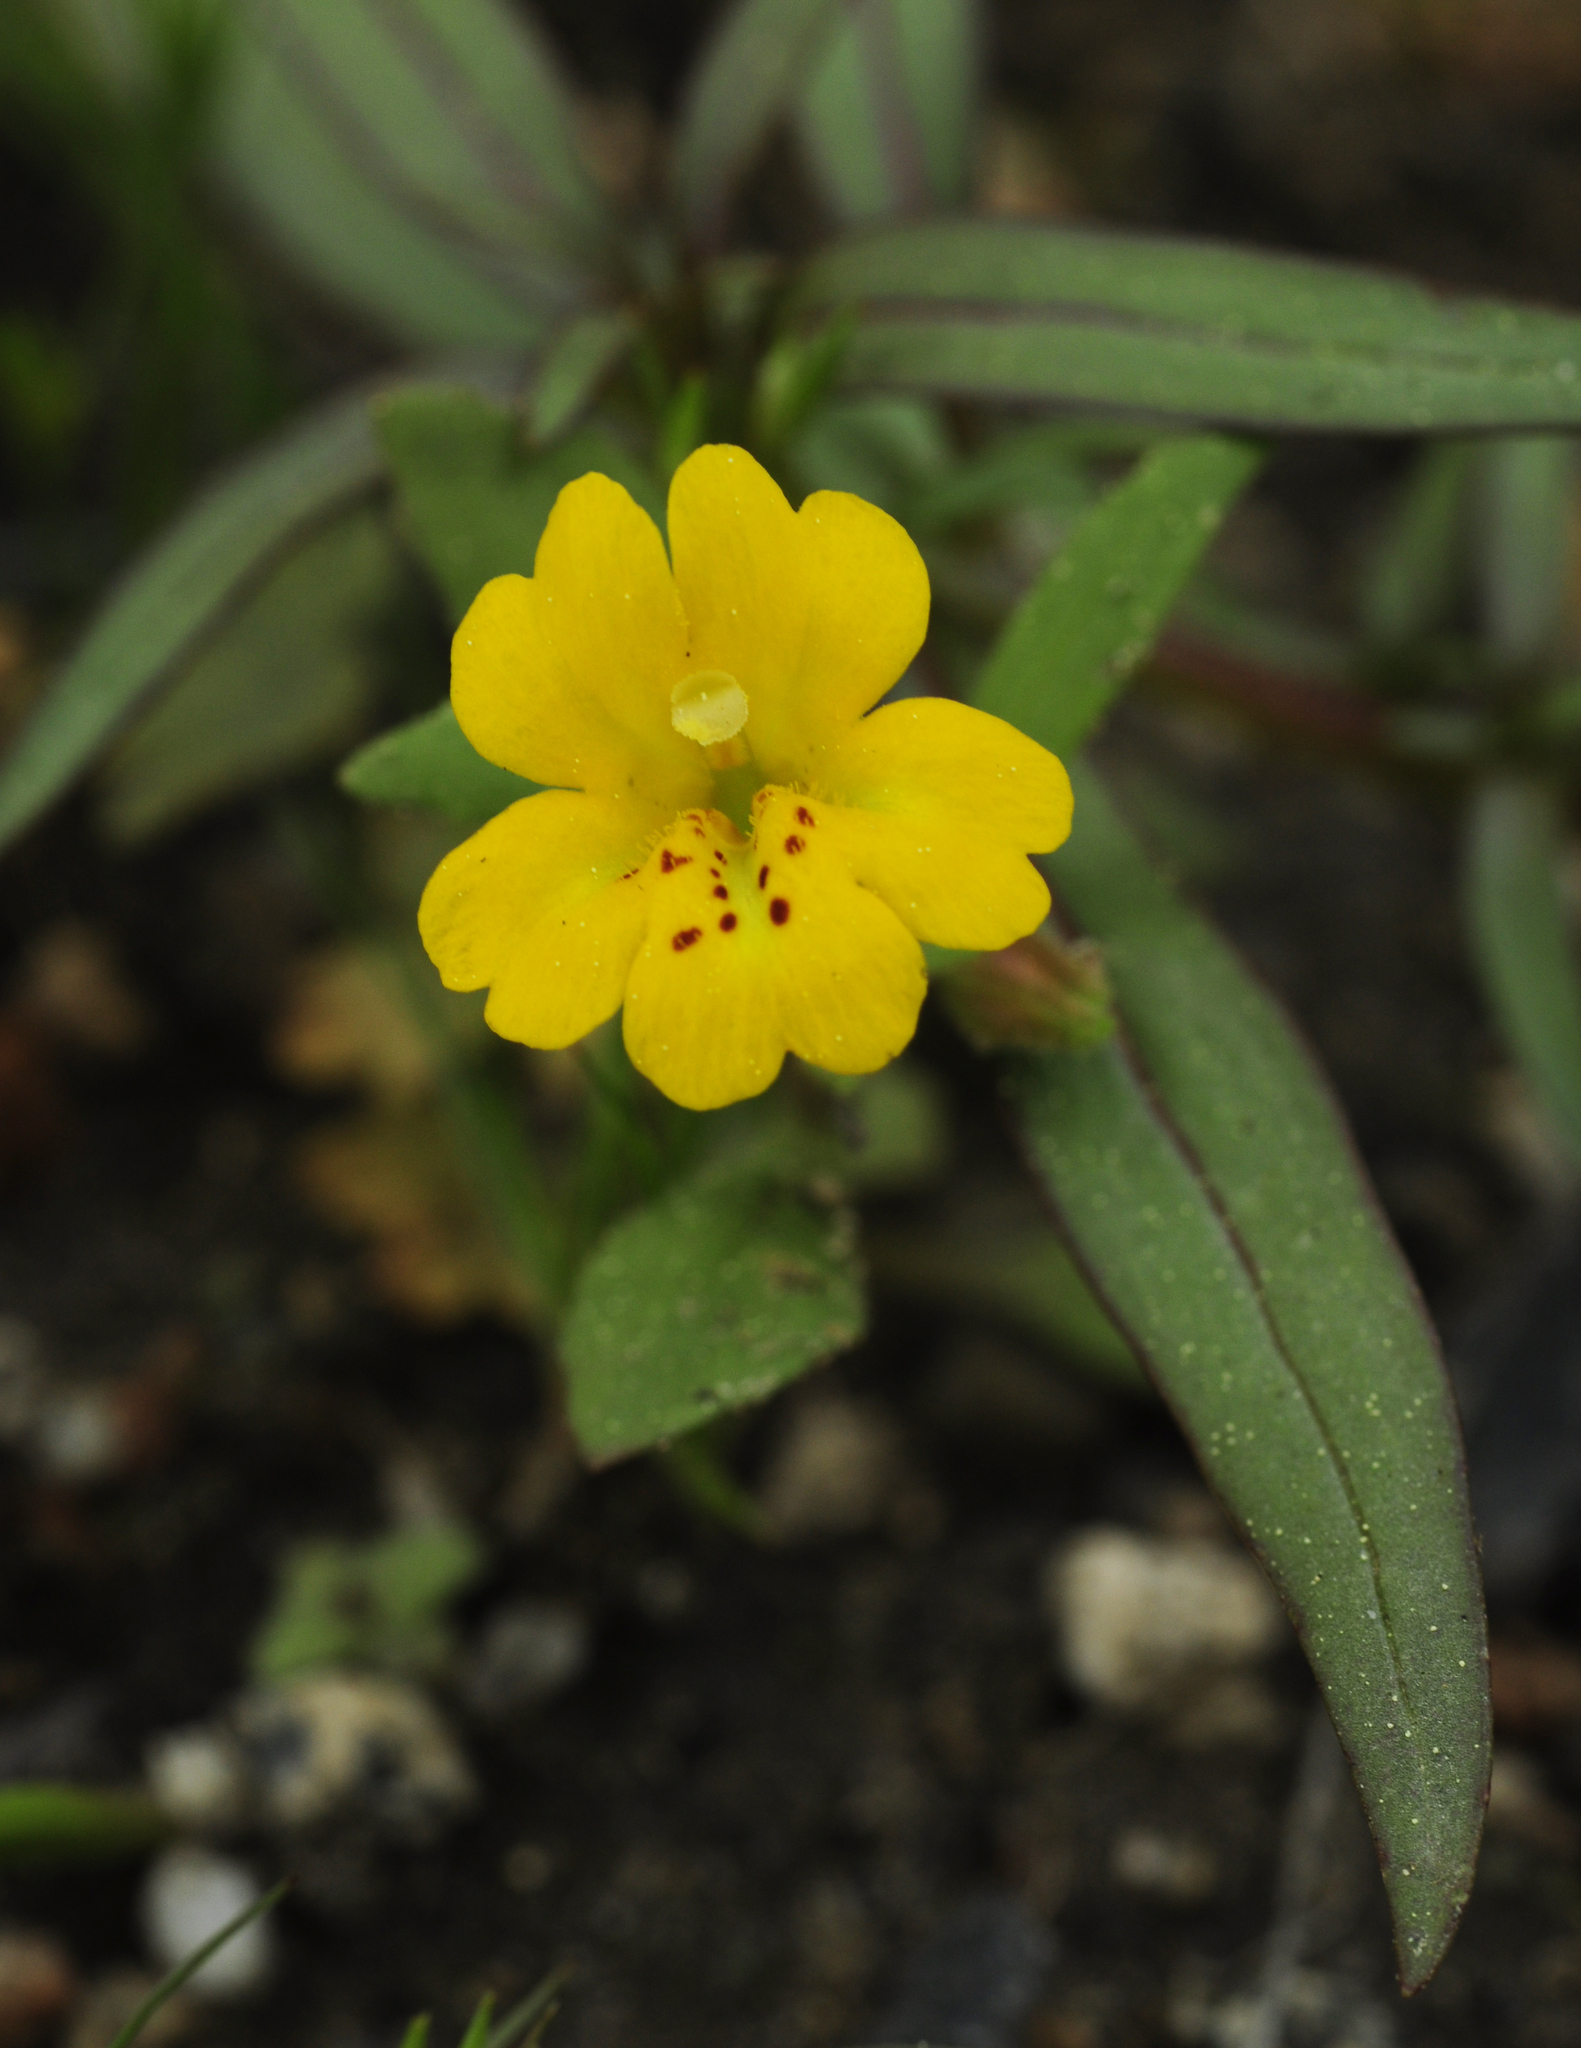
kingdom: Plantae
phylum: Tracheophyta
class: Magnoliopsida
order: Lamiales
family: Phrymaceae
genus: Erythranthe
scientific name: Erythranthe bicolor
